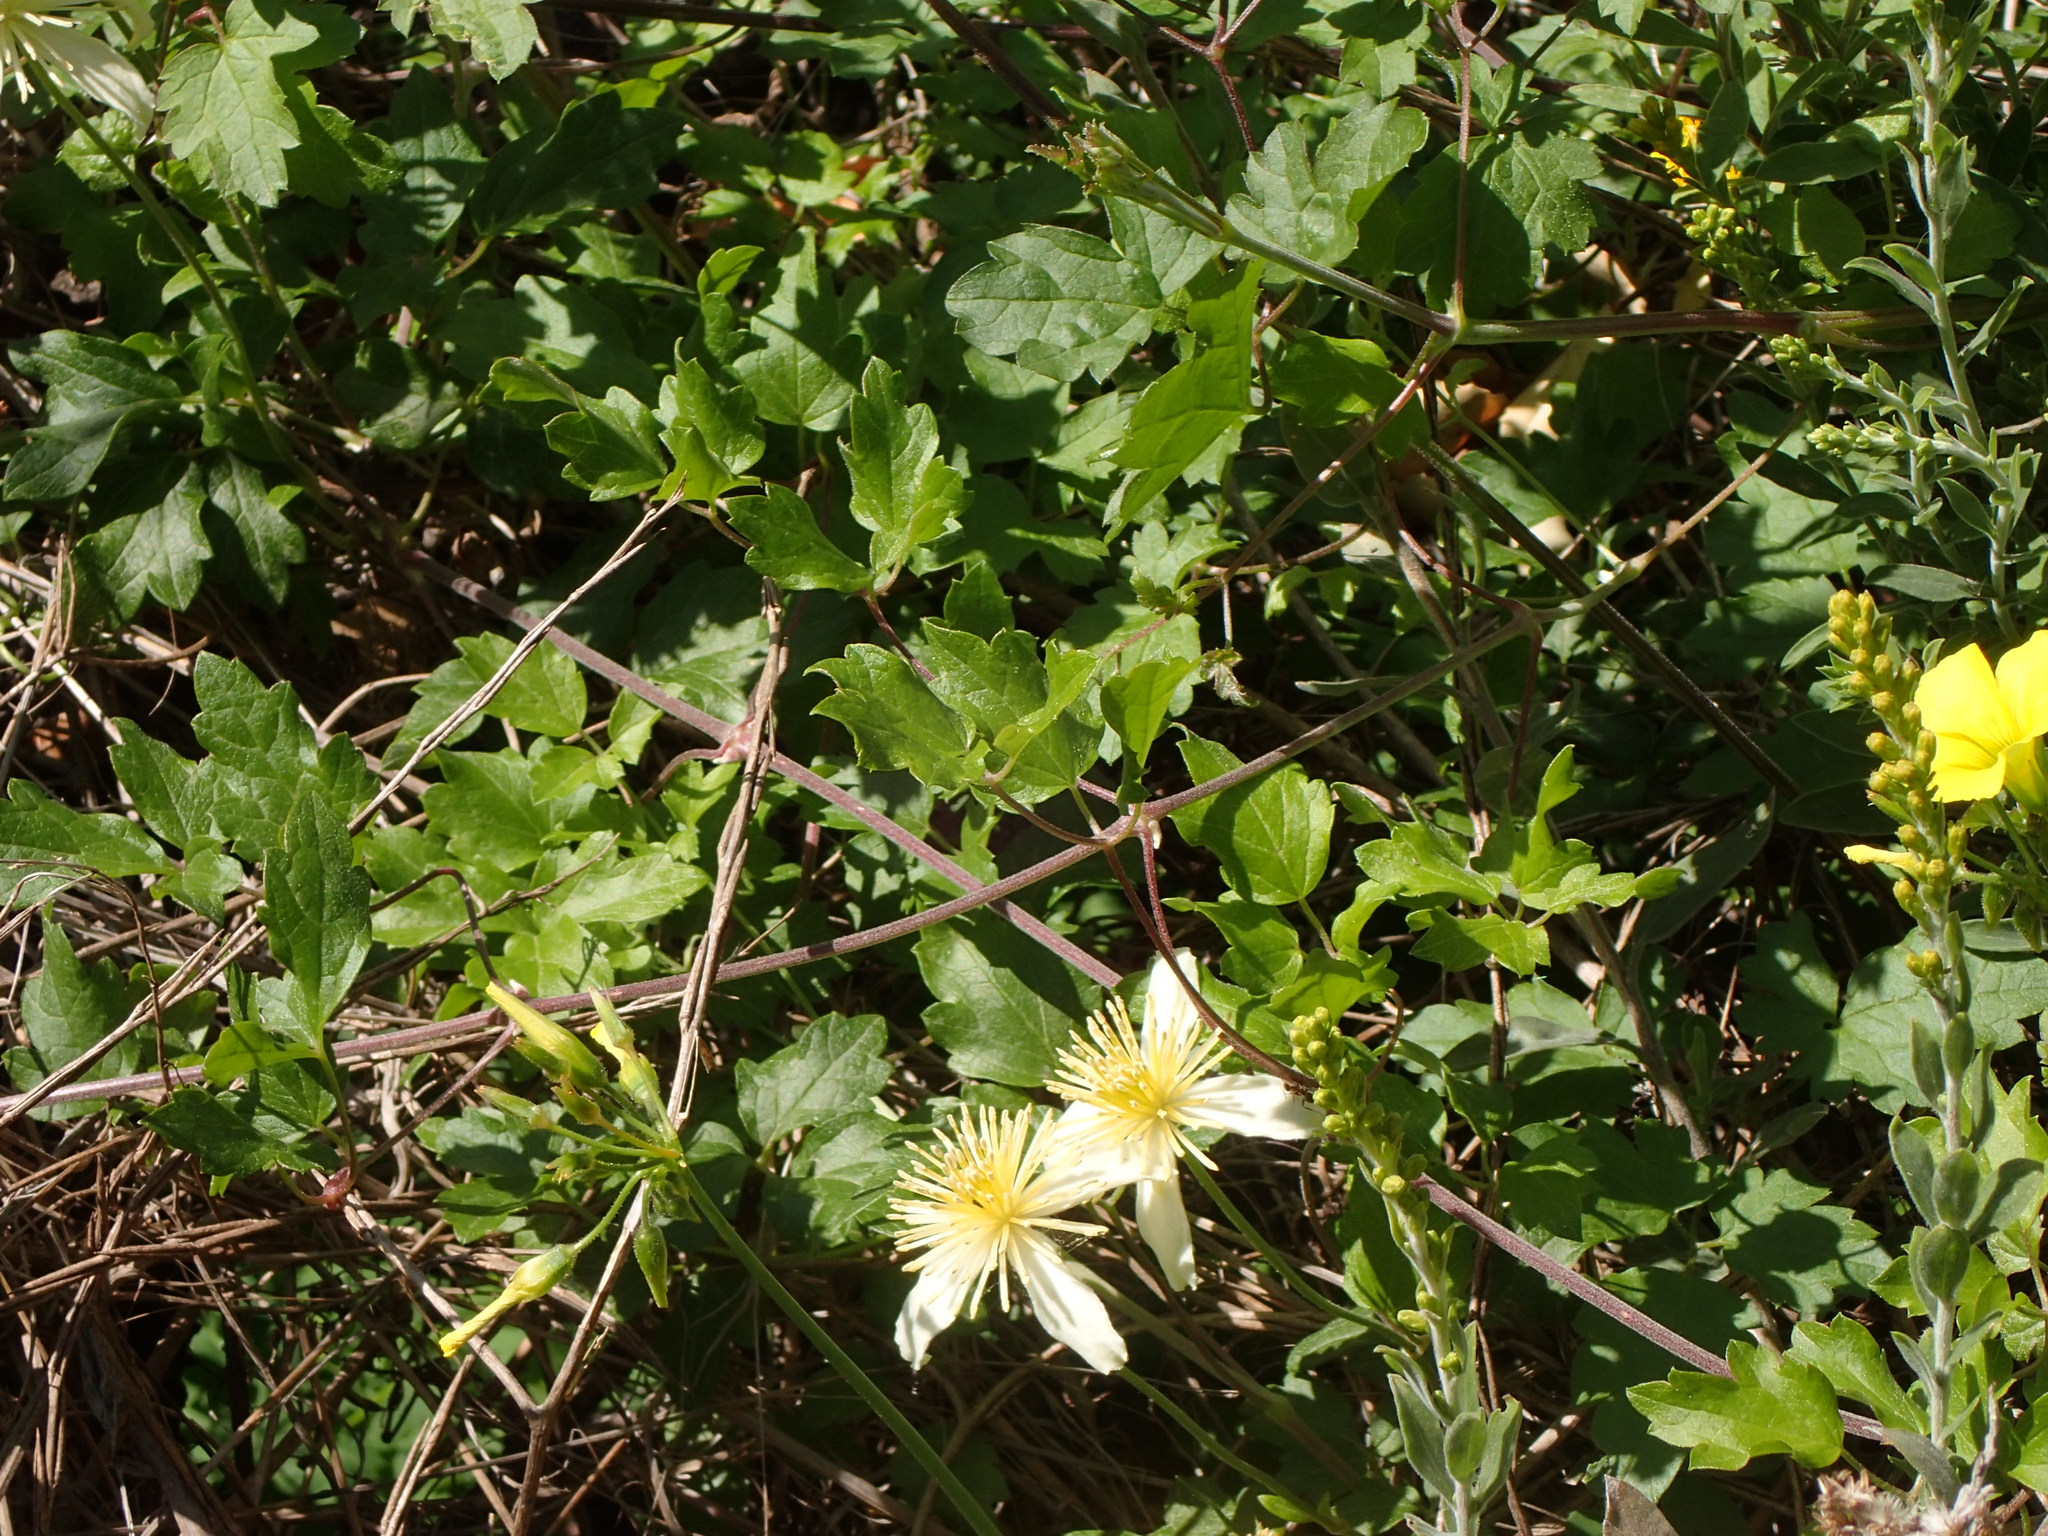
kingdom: Plantae
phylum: Tracheophyta
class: Magnoliopsida
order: Ranunculales
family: Ranunculaceae
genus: Clematis
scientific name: Clematis lasiantha
